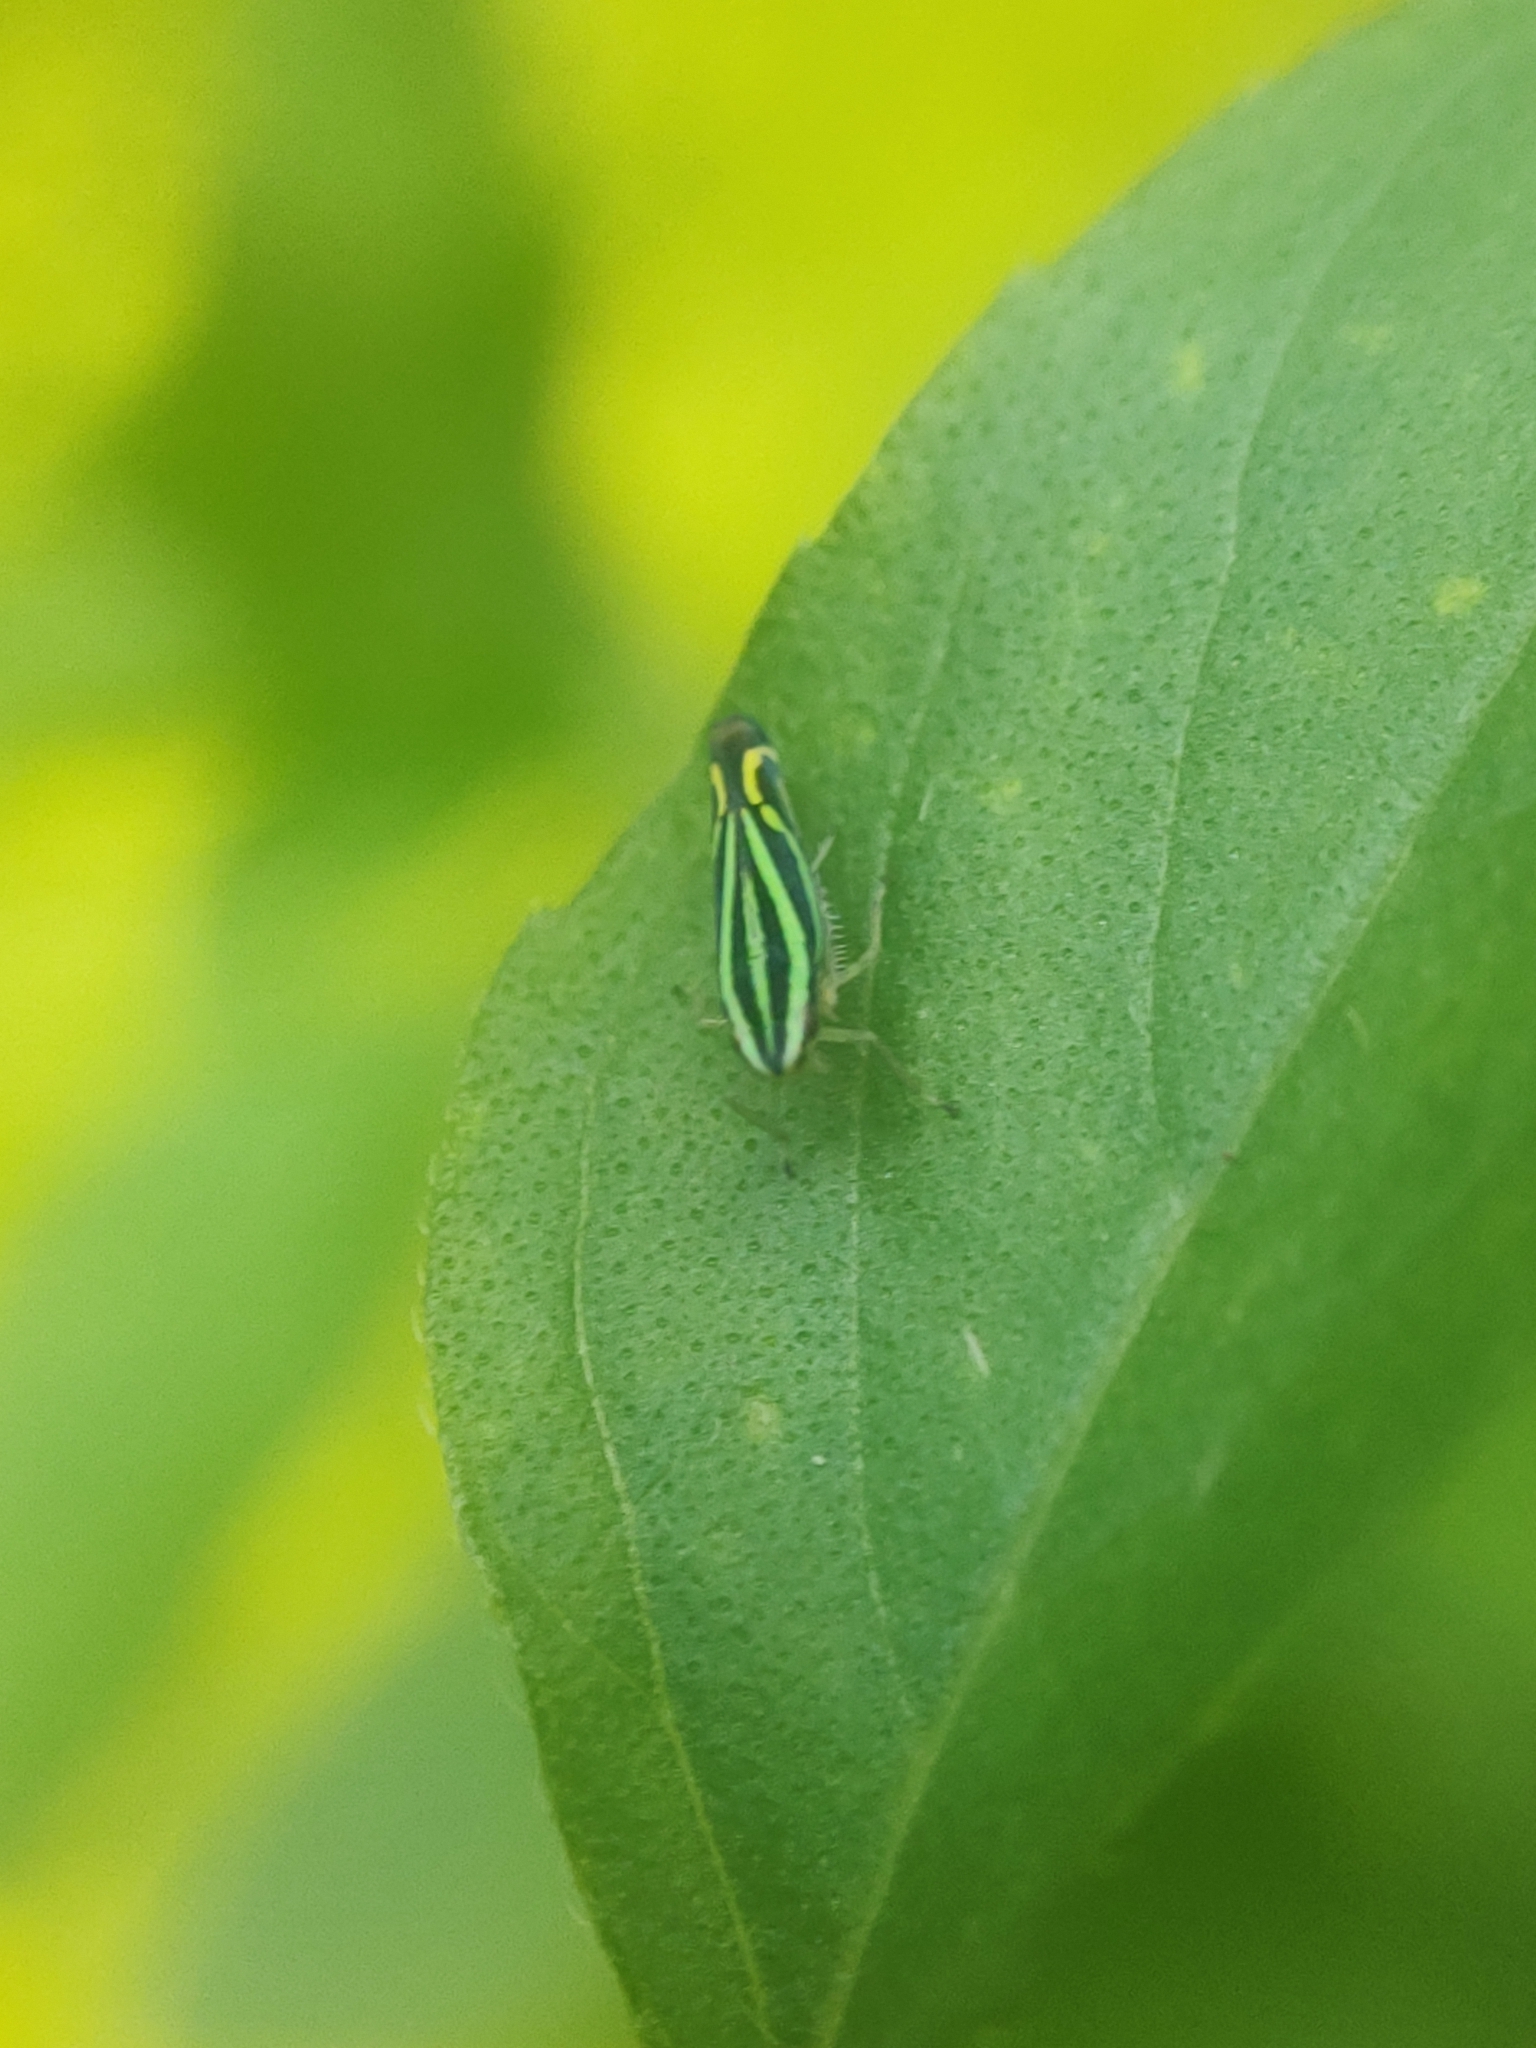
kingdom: Animalia
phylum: Arthropoda
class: Insecta
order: Hemiptera
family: Cicadellidae
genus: Sibovia
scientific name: Sibovia sagata
